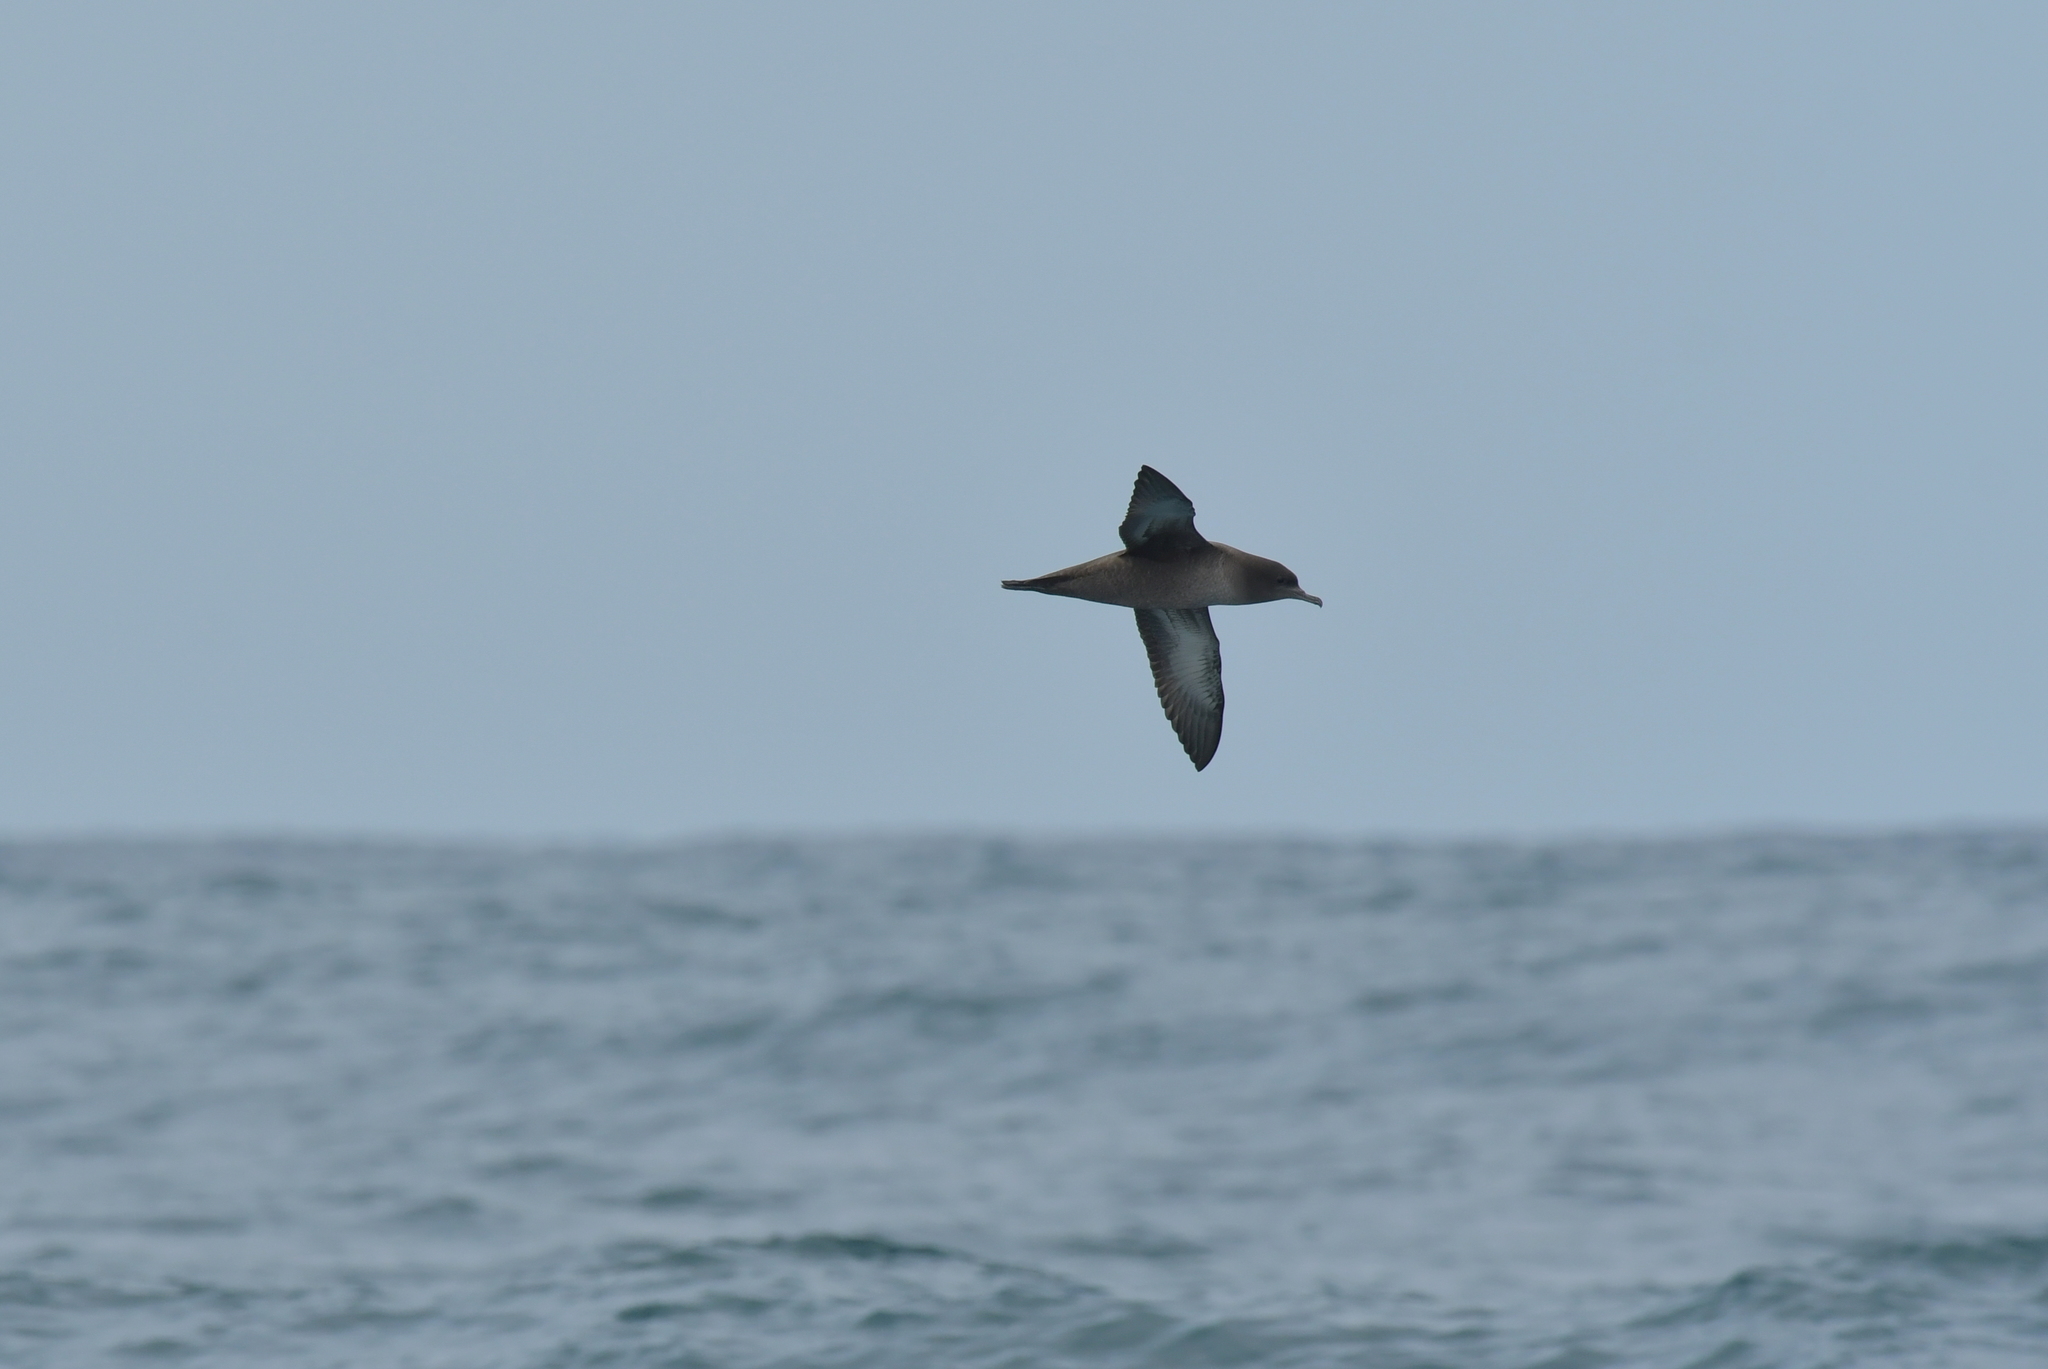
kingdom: Animalia
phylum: Chordata
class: Aves
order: Procellariiformes
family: Procellariidae
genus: Puffinus
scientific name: Puffinus griseus
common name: Sooty shearwater
